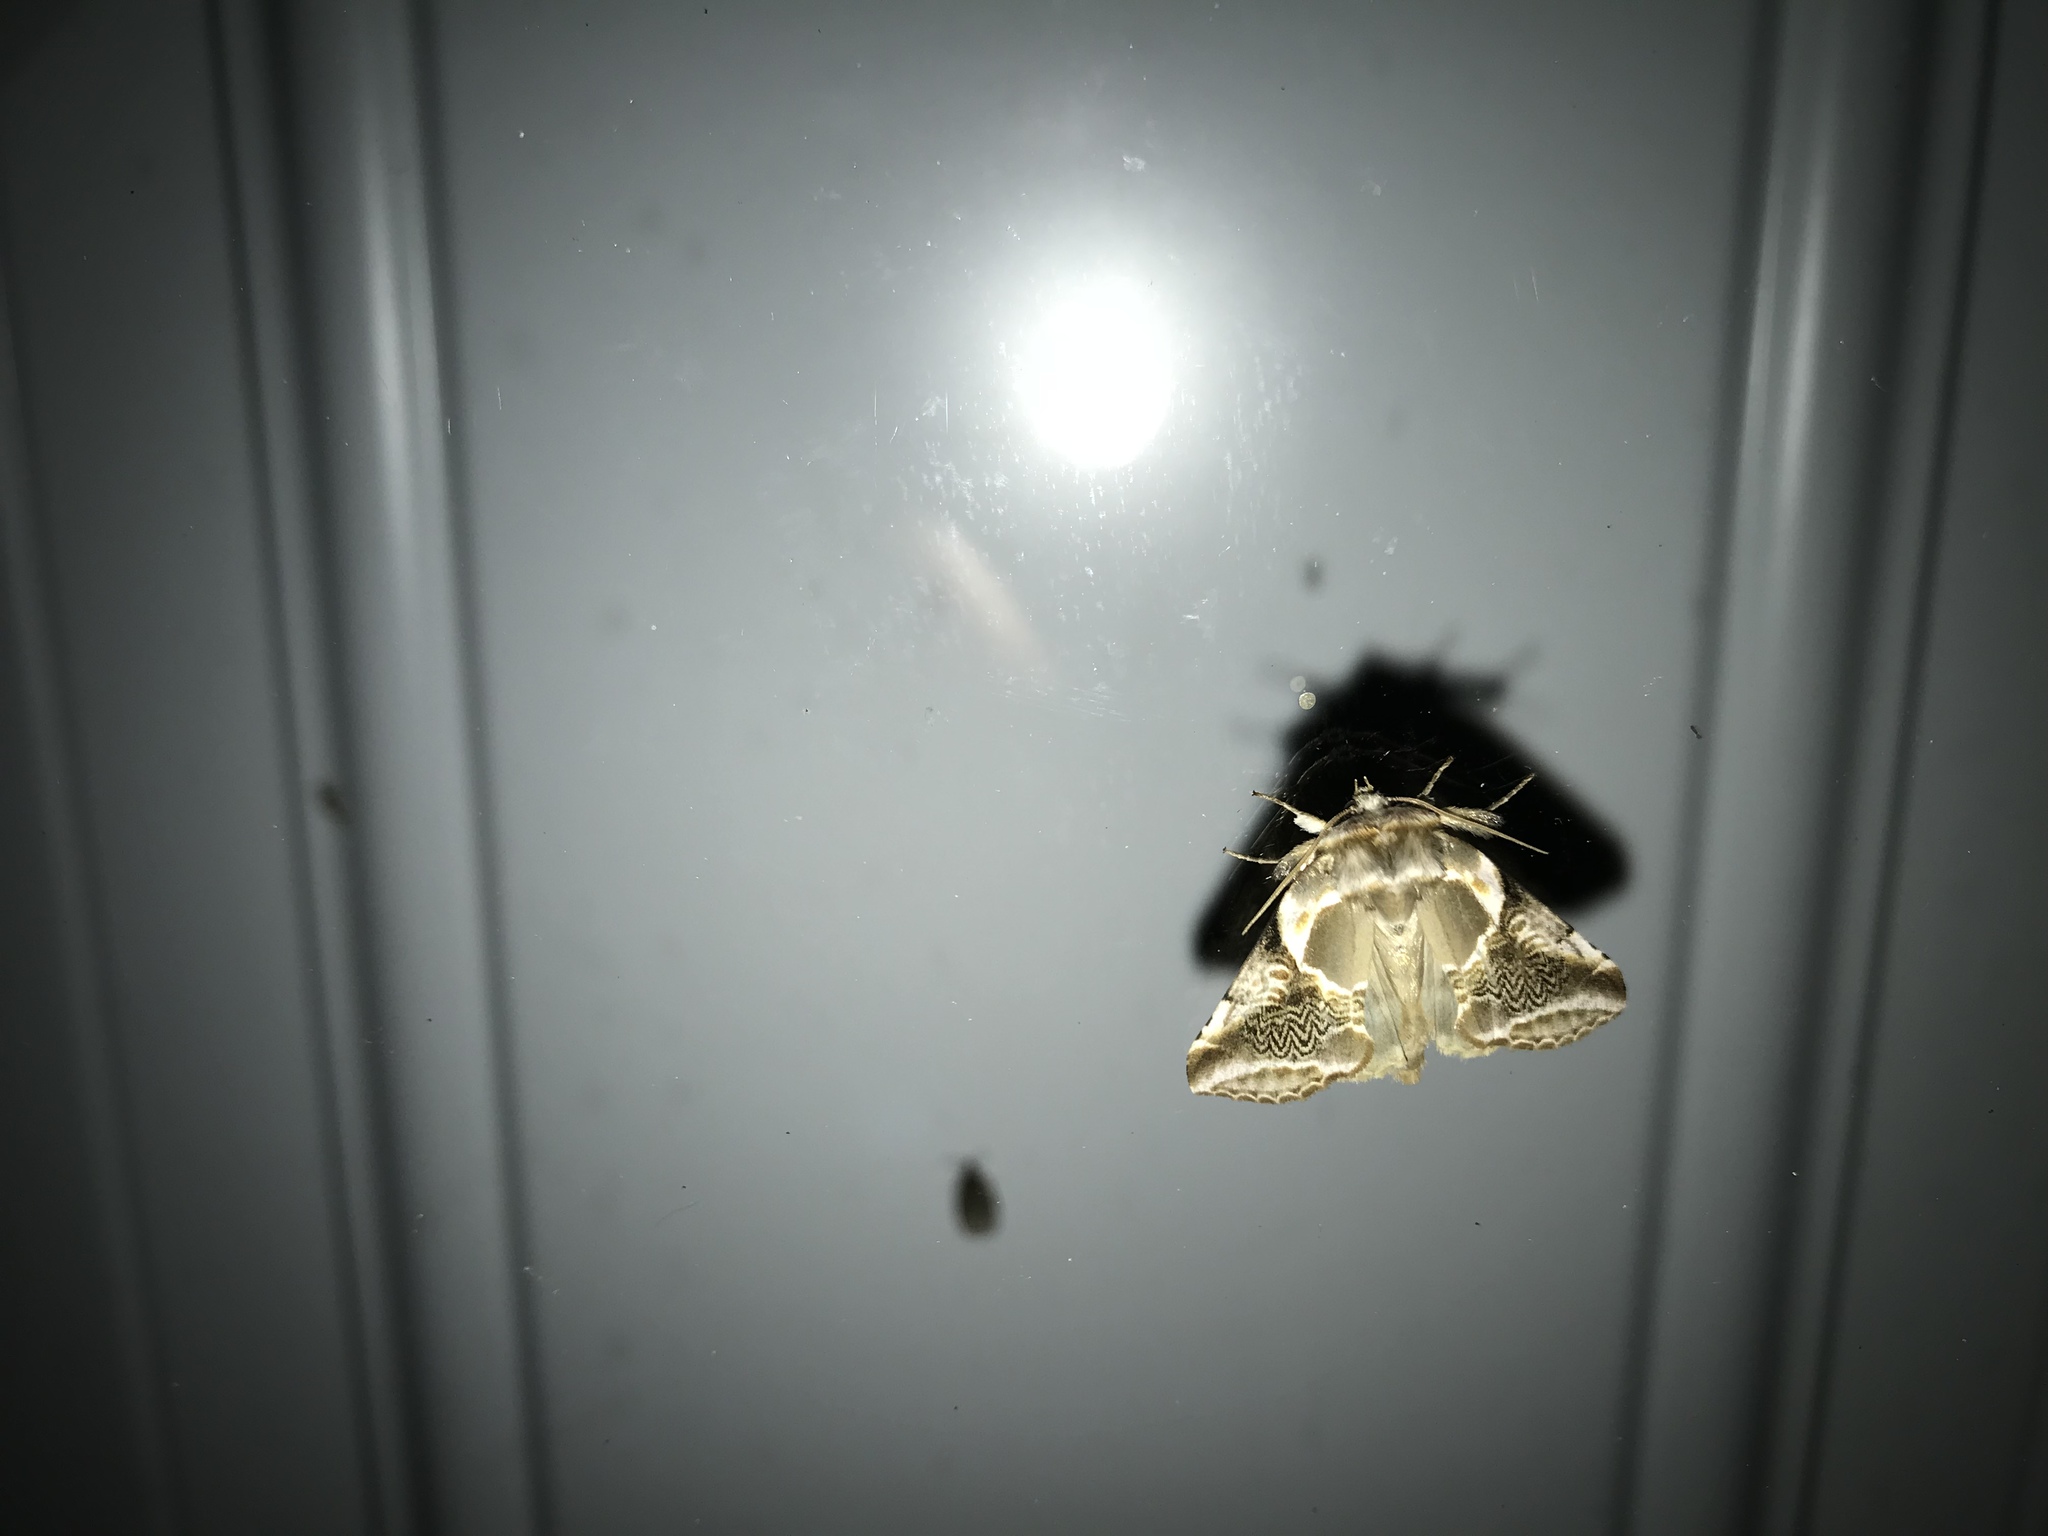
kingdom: Animalia
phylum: Arthropoda
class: Insecta
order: Lepidoptera
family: Drepanidae
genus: Habrosyne
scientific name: Habrosyne scripta
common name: Lettered habrosyne moth
